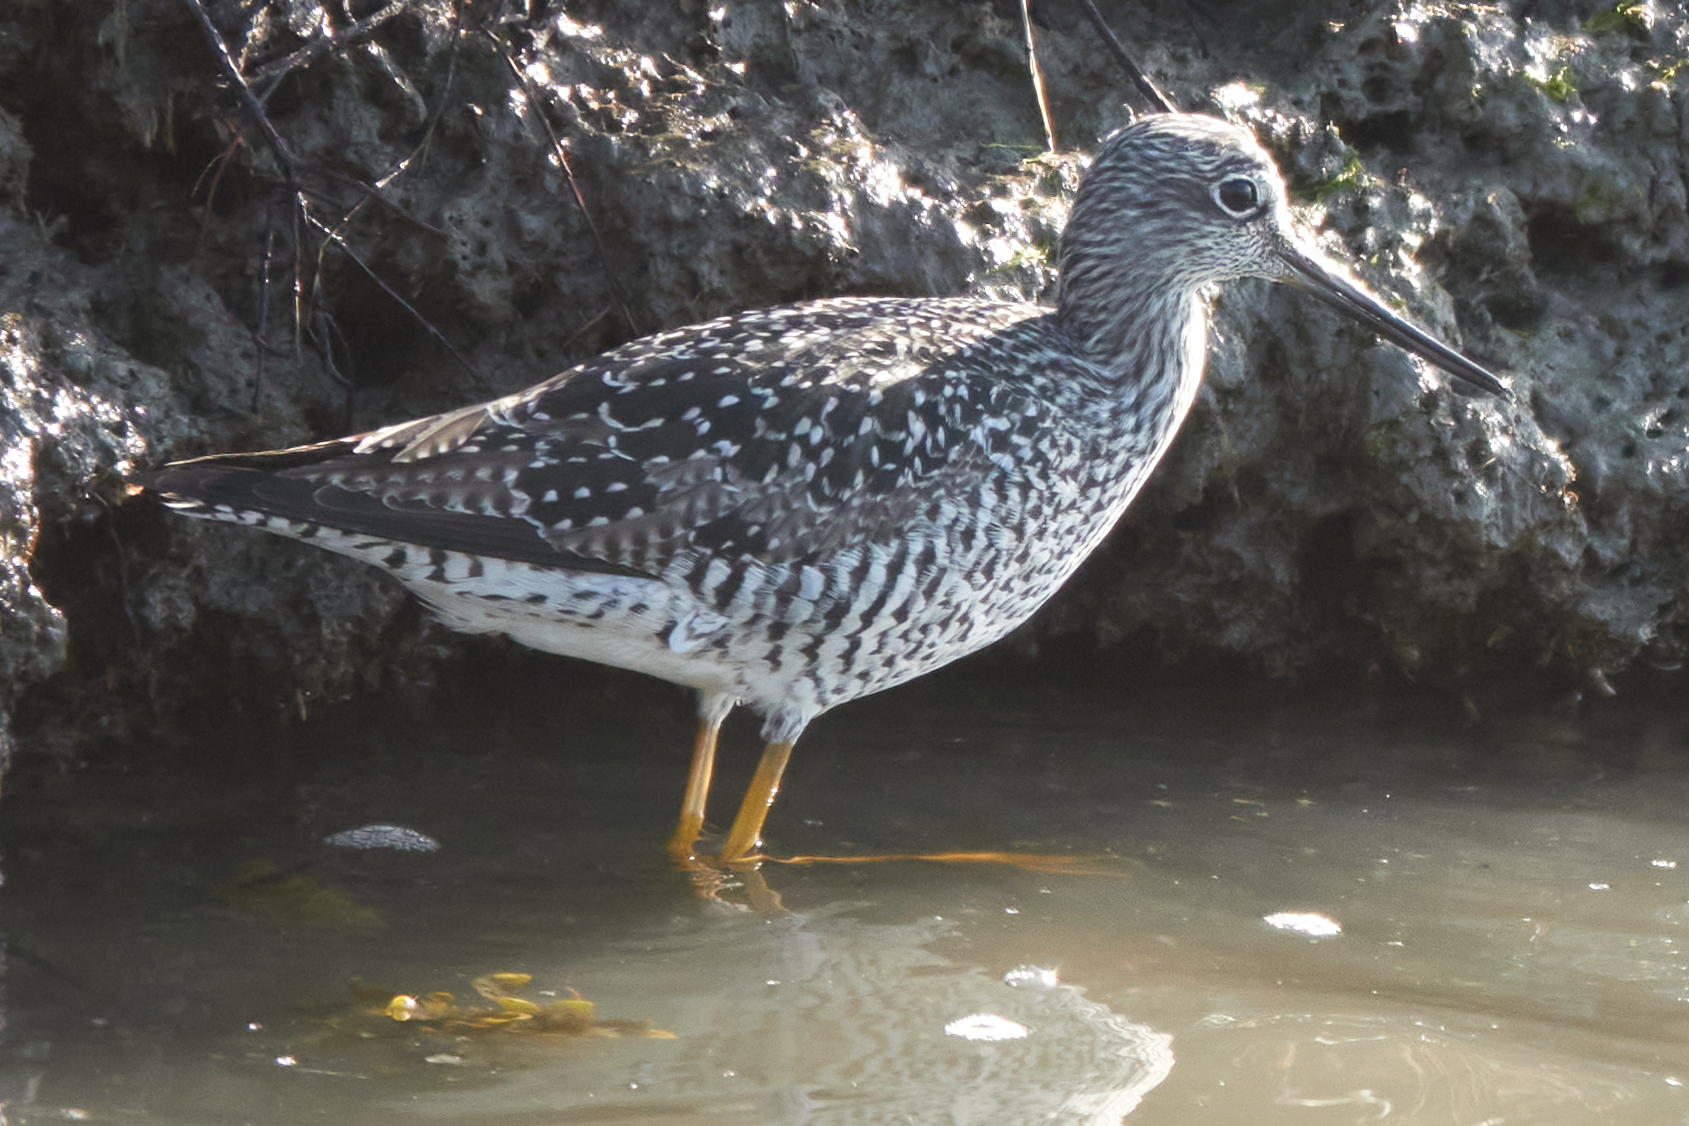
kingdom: Animalia
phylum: Chordata
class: Aves
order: Charadriiformes
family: Scolopacidae
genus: Tringa
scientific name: Tringa melanoleuca
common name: Greater yellowlegs
